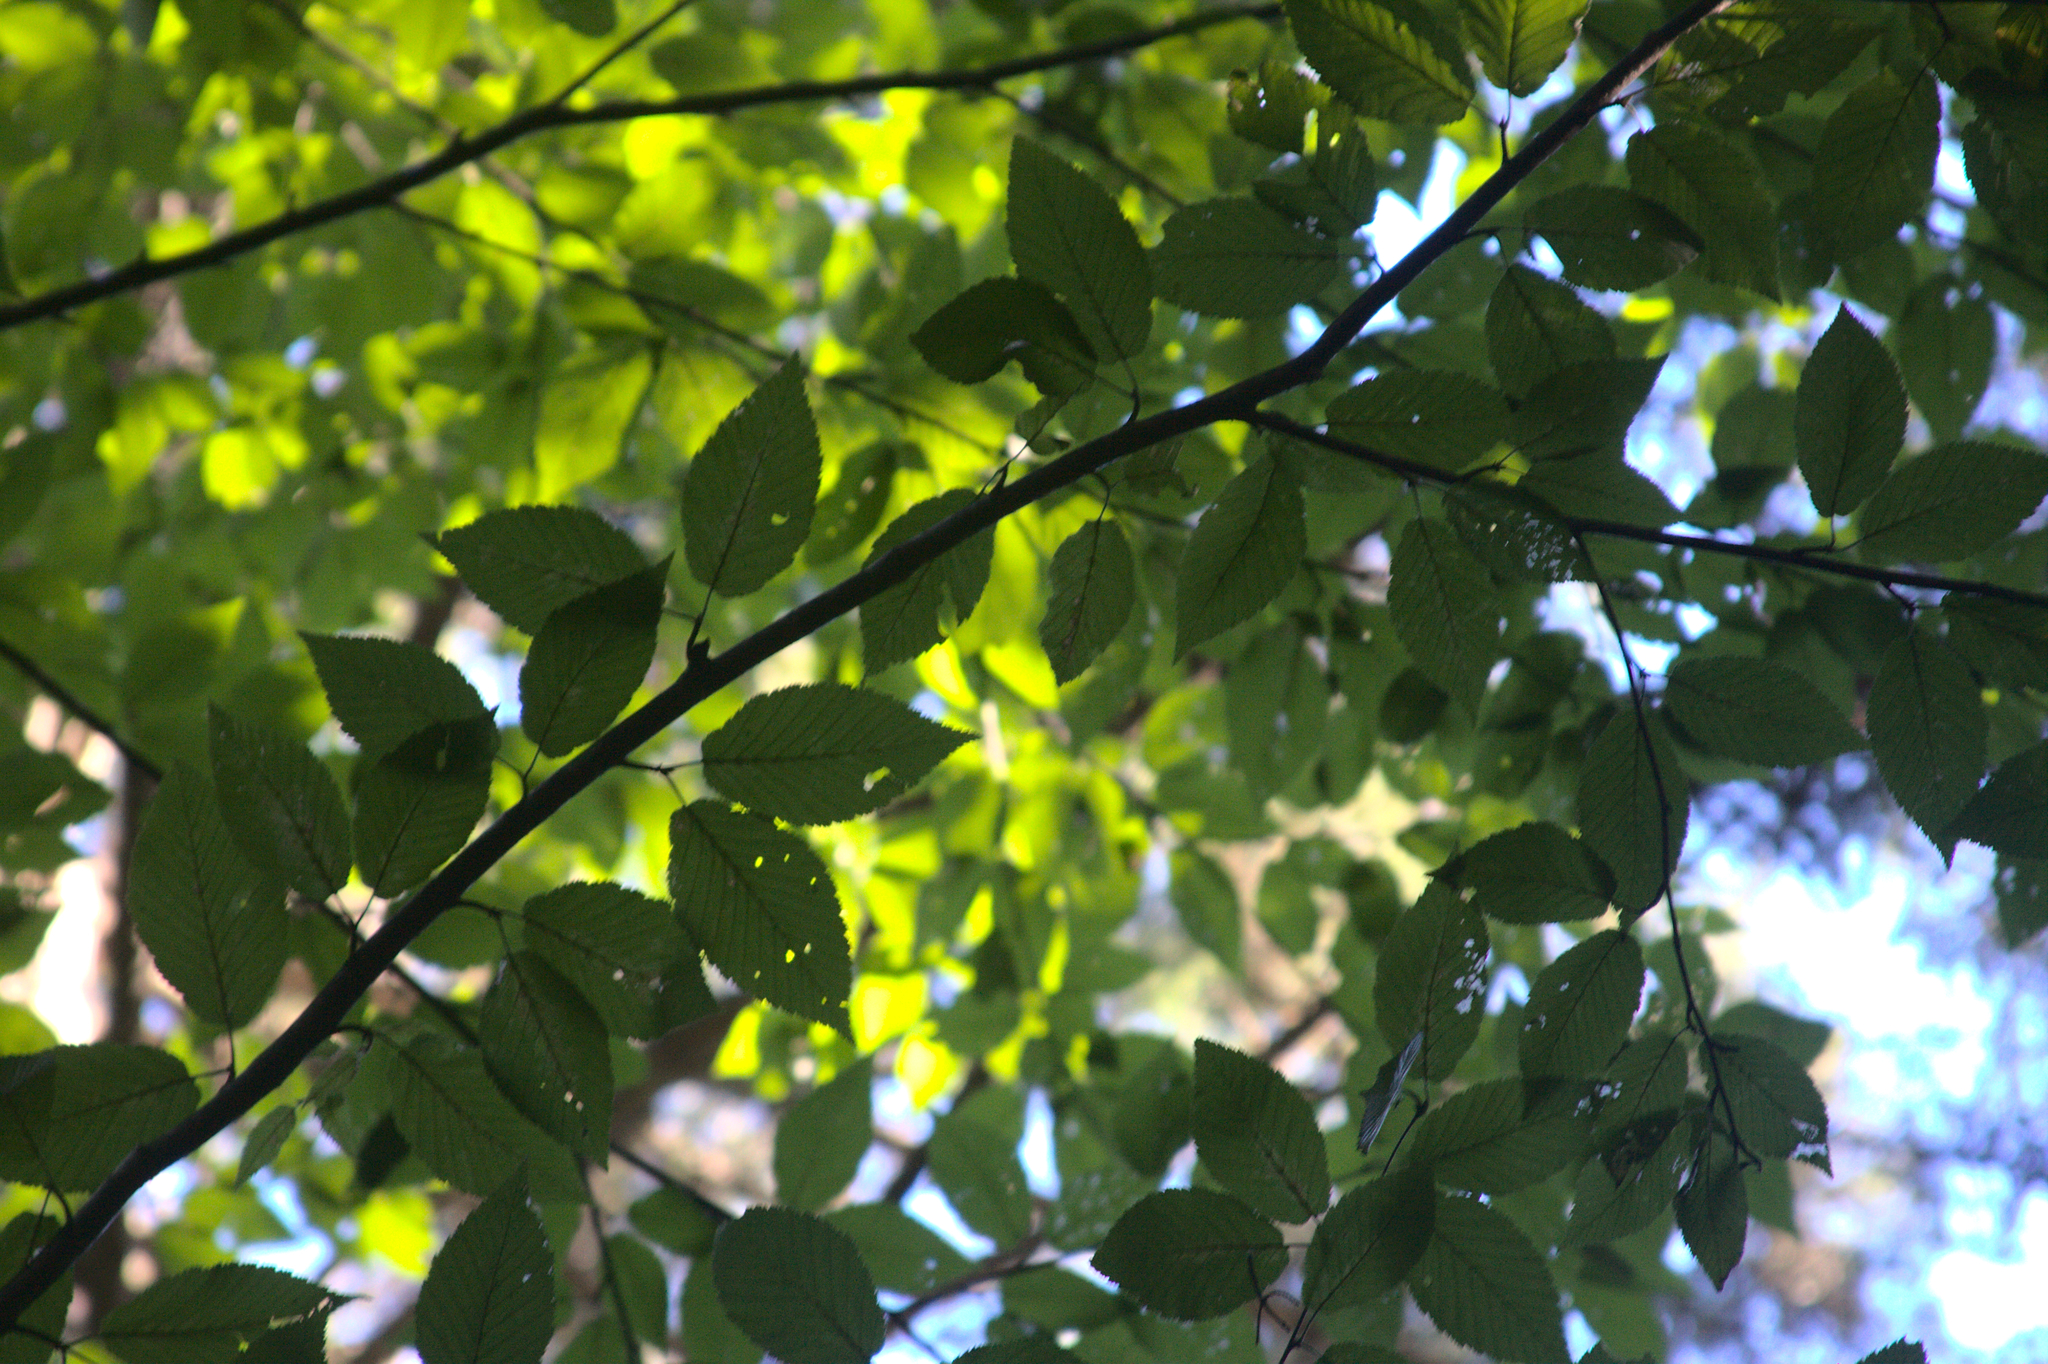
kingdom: Plantae
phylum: Tracheophyta
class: Magnoliopsida
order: Fagales
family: Betulaceae
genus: Betula
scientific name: Betula alleghaniensis
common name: Yellow birch
